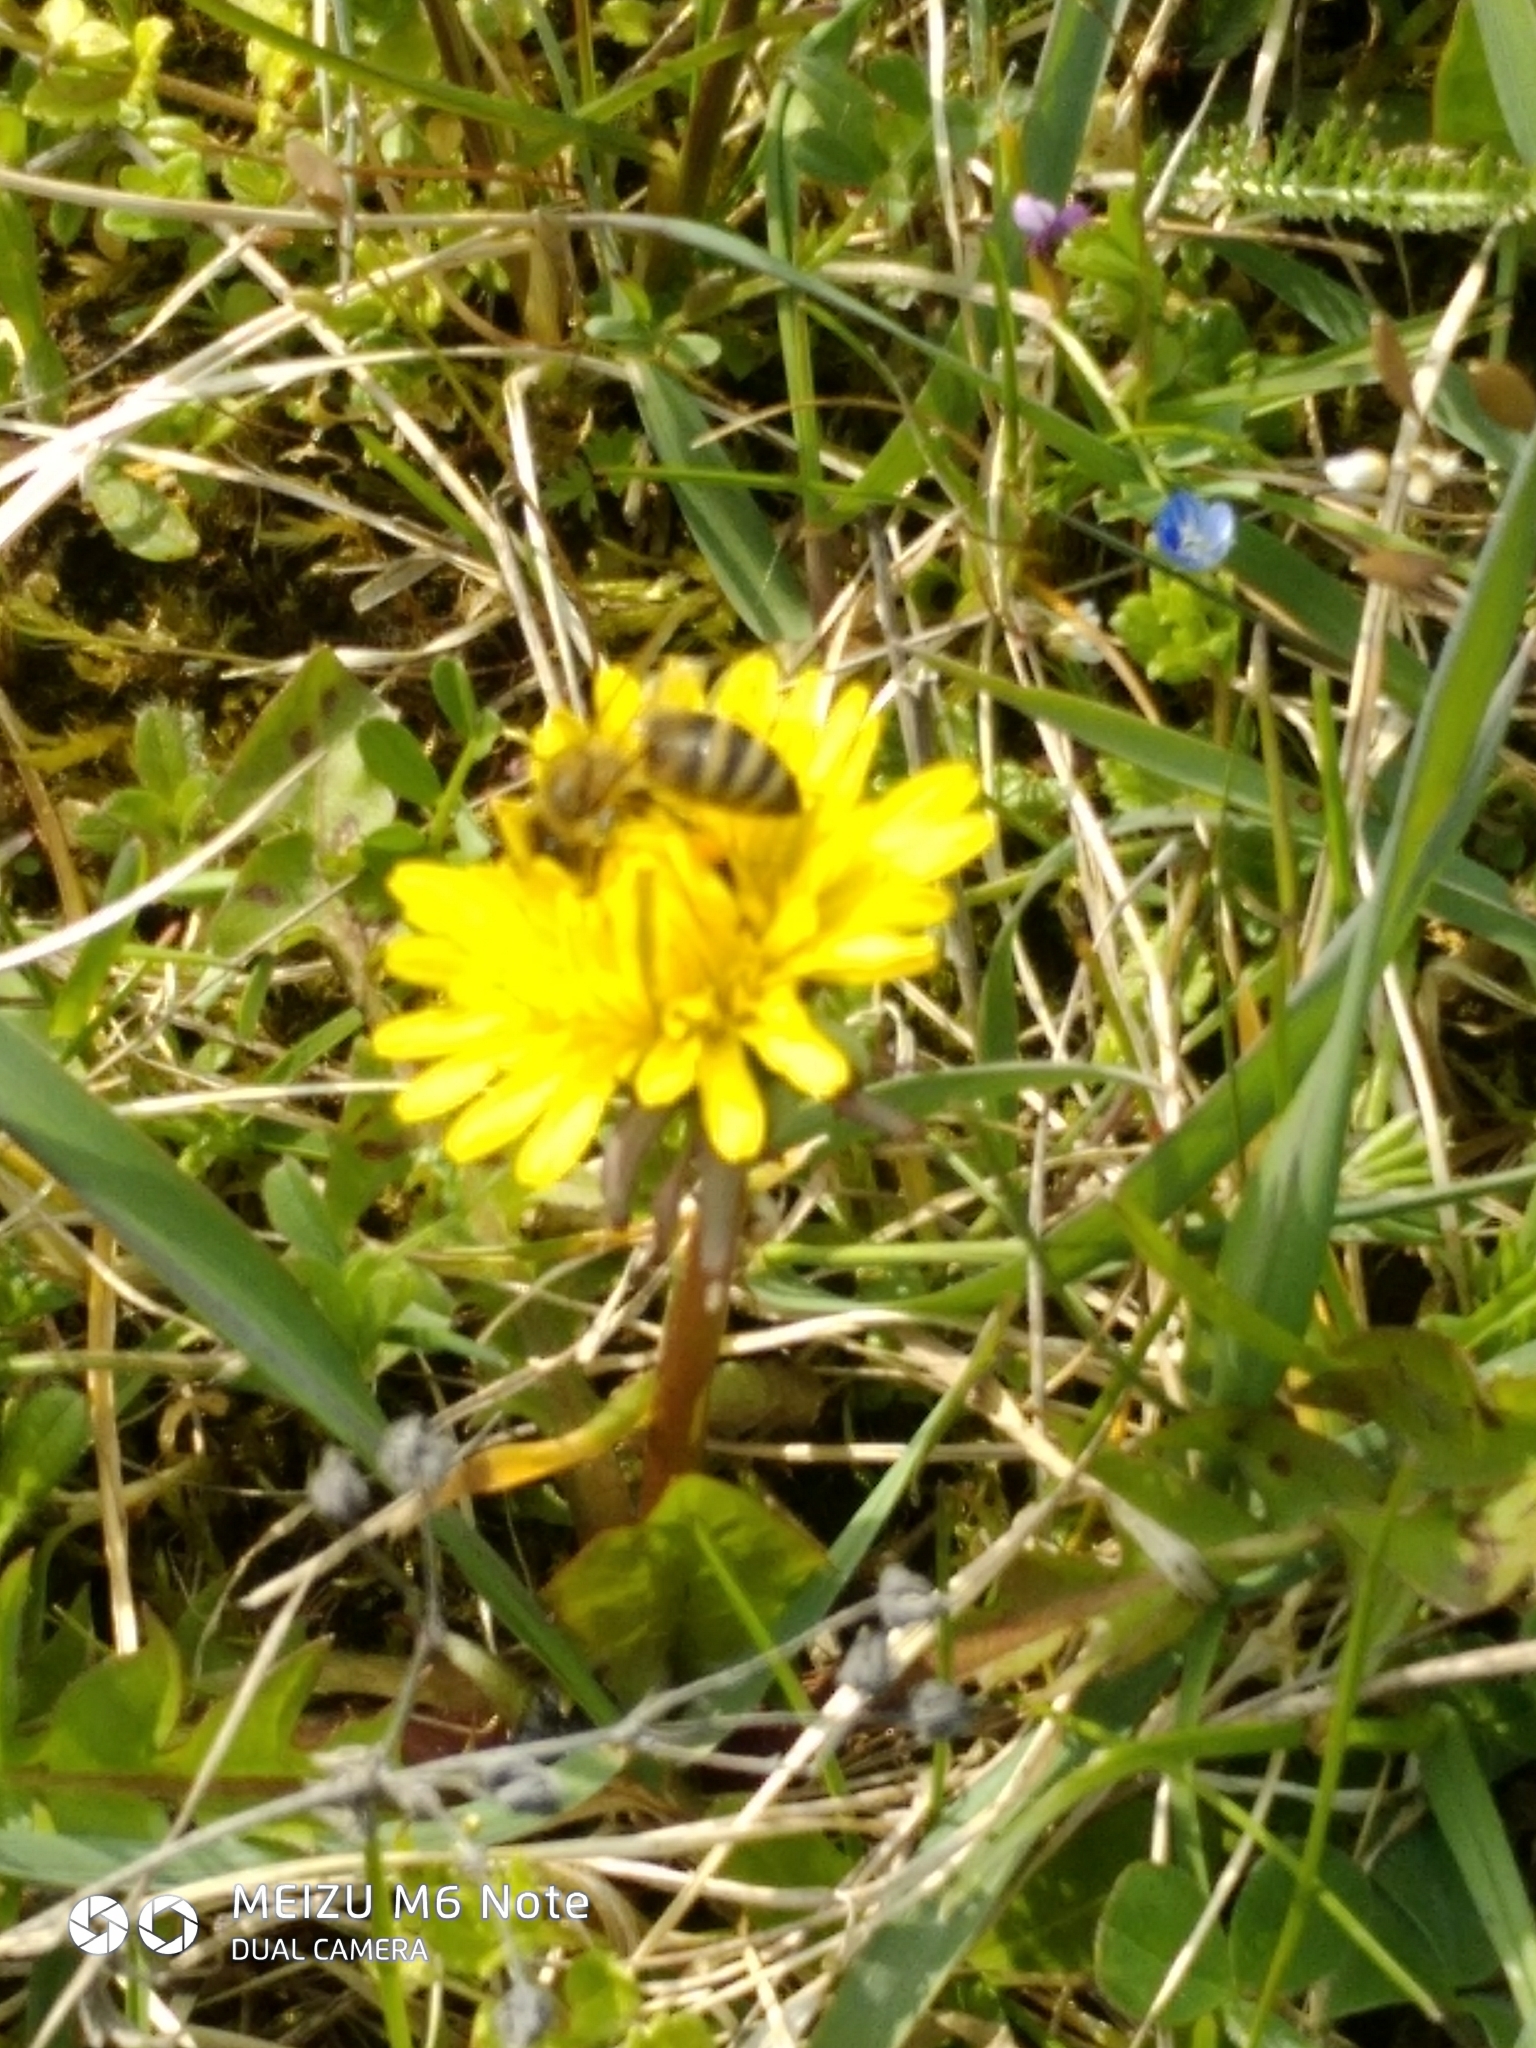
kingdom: Animalia
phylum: Arthropoda
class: Insecta
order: Hymenoptera
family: Apidae
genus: Apis
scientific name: Apis mellifera
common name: Honey bee
